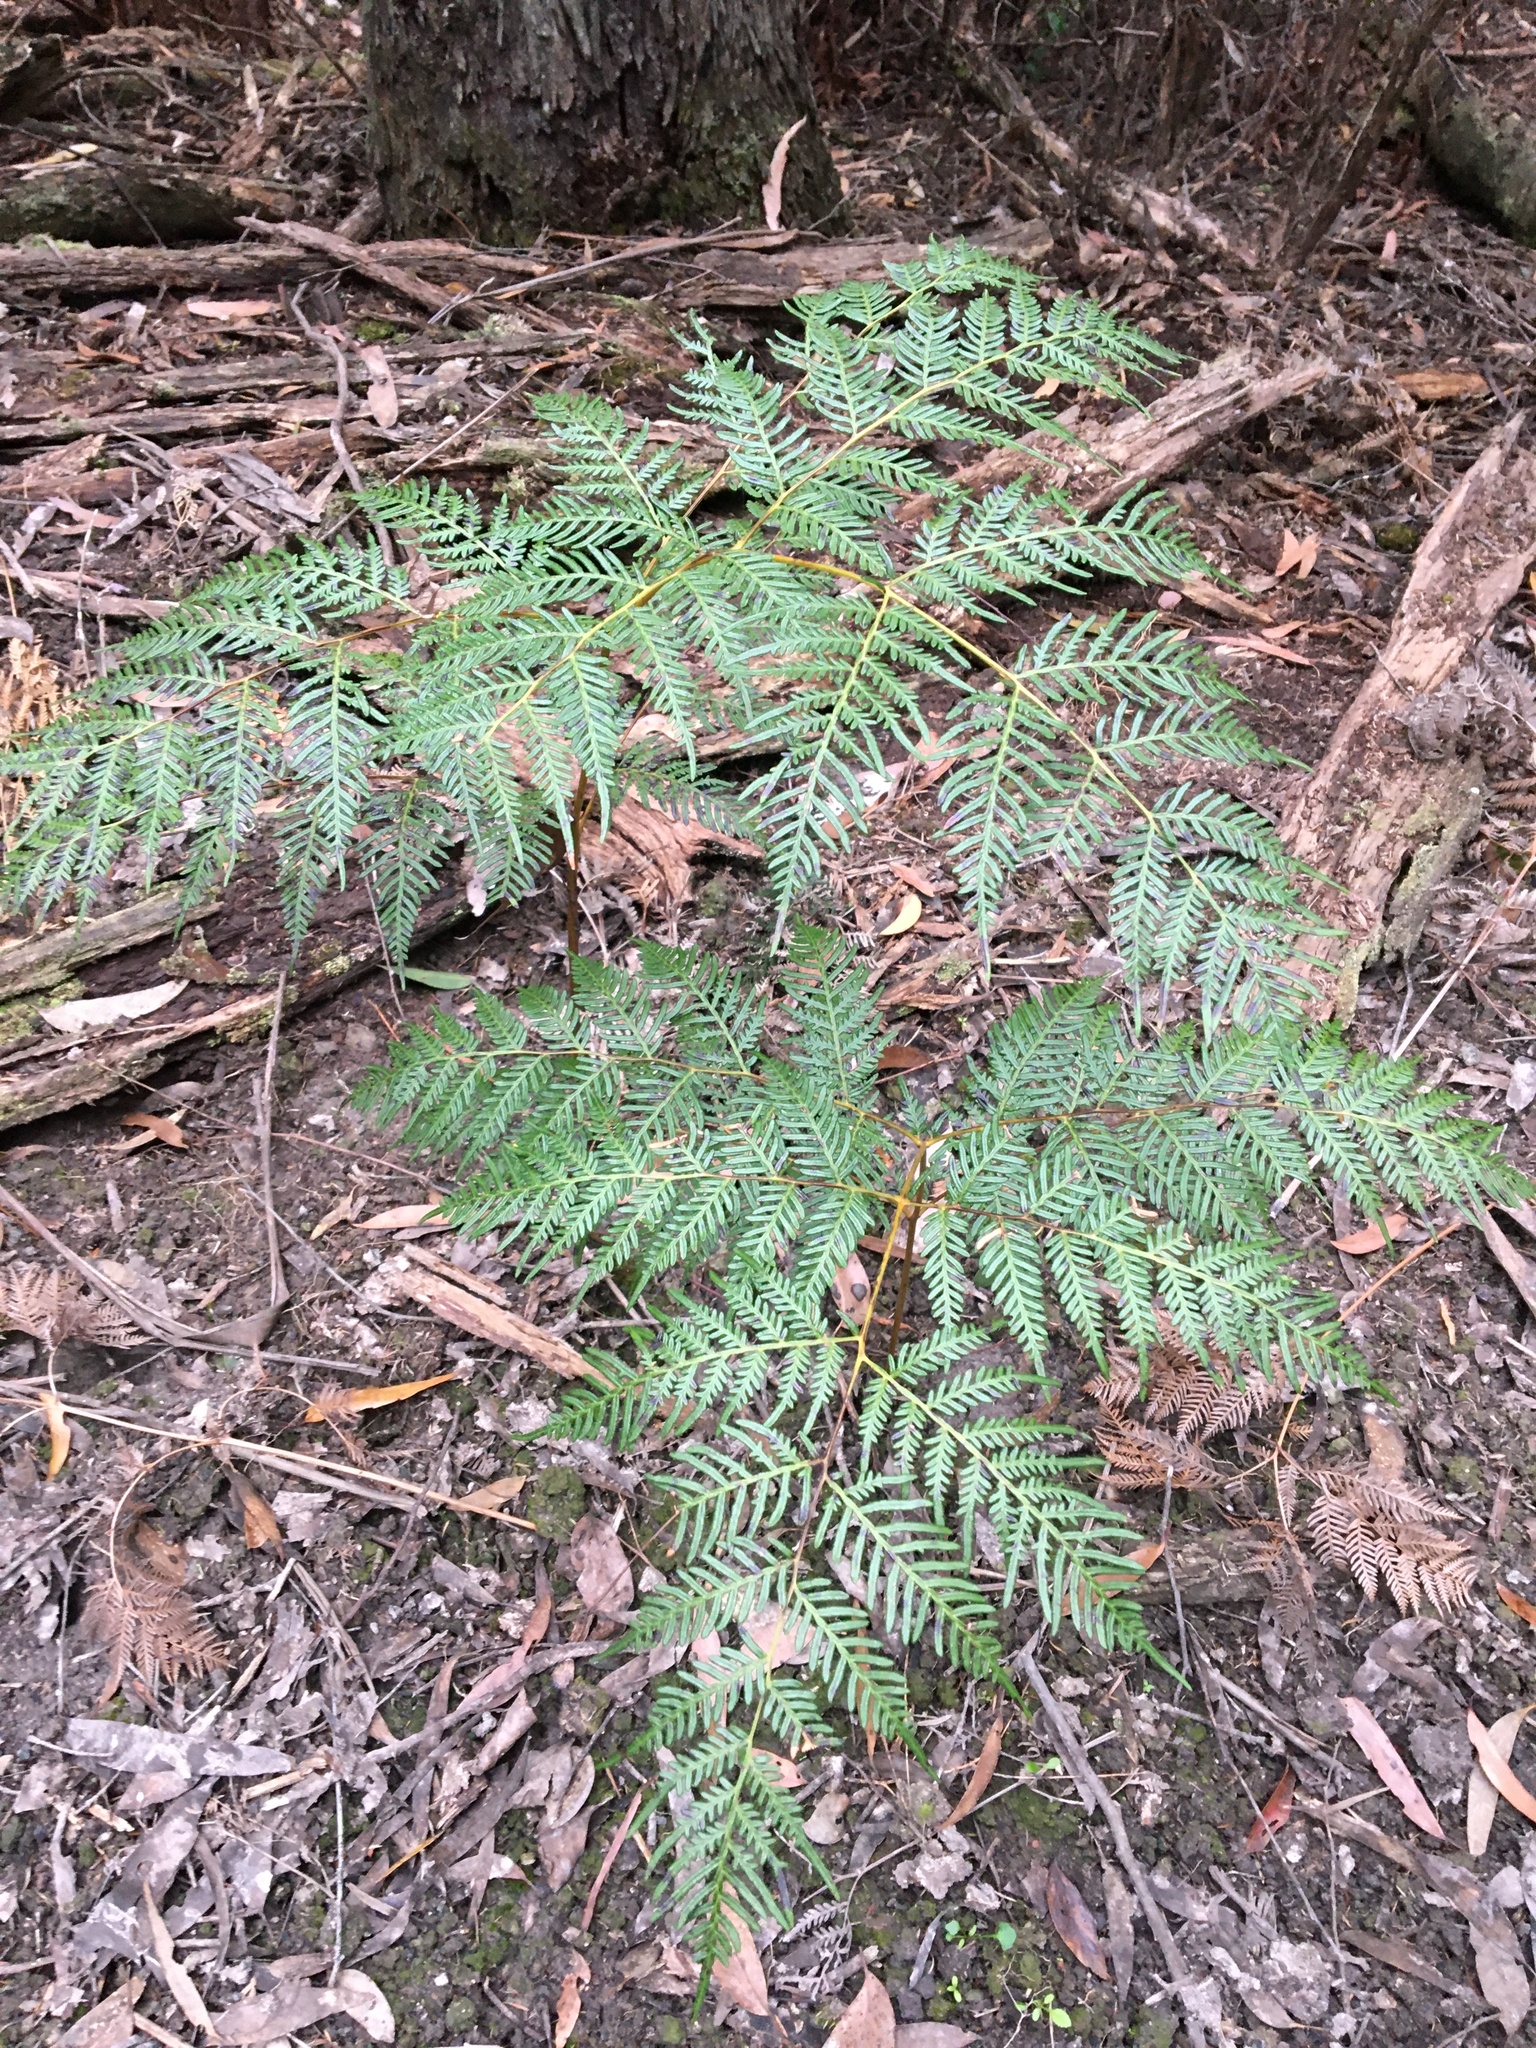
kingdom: Plantae
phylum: Tracheophyta
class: Polypodiopsida
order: Polypodiales
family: Dennstaedtiaceae
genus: Pteridium
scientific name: Pteridium esculentum
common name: Bracken fern
